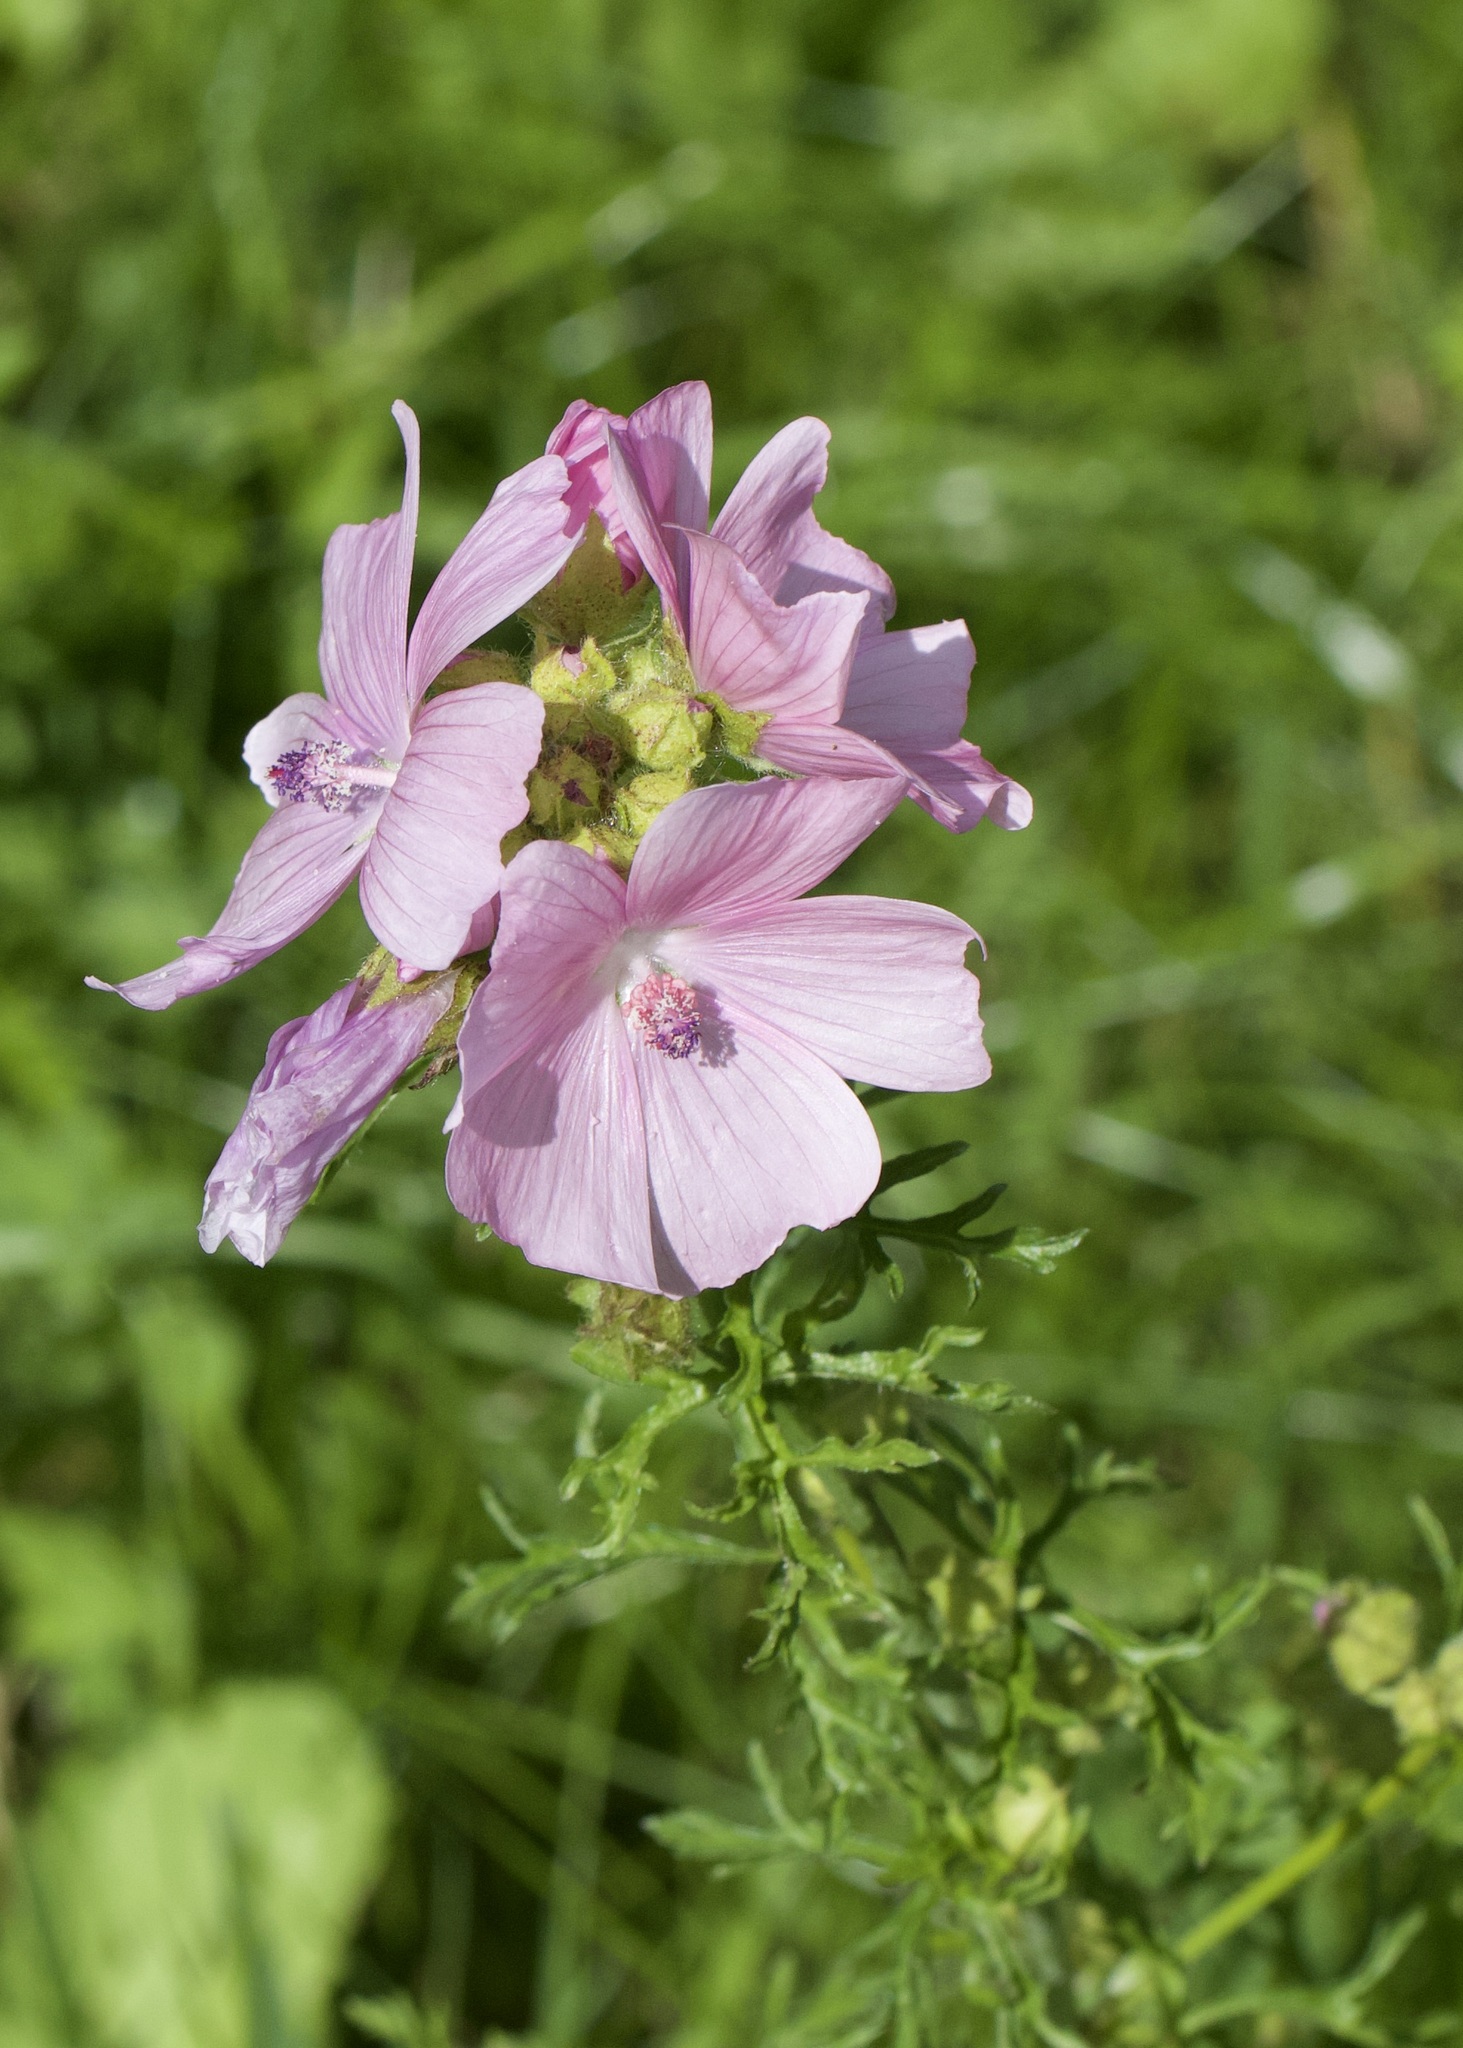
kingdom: Plantae
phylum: Tracheophyta
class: Magnoliopsida
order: Malvales
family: Malvaceae
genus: Malva
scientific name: Malva moschata
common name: Musk mallow
